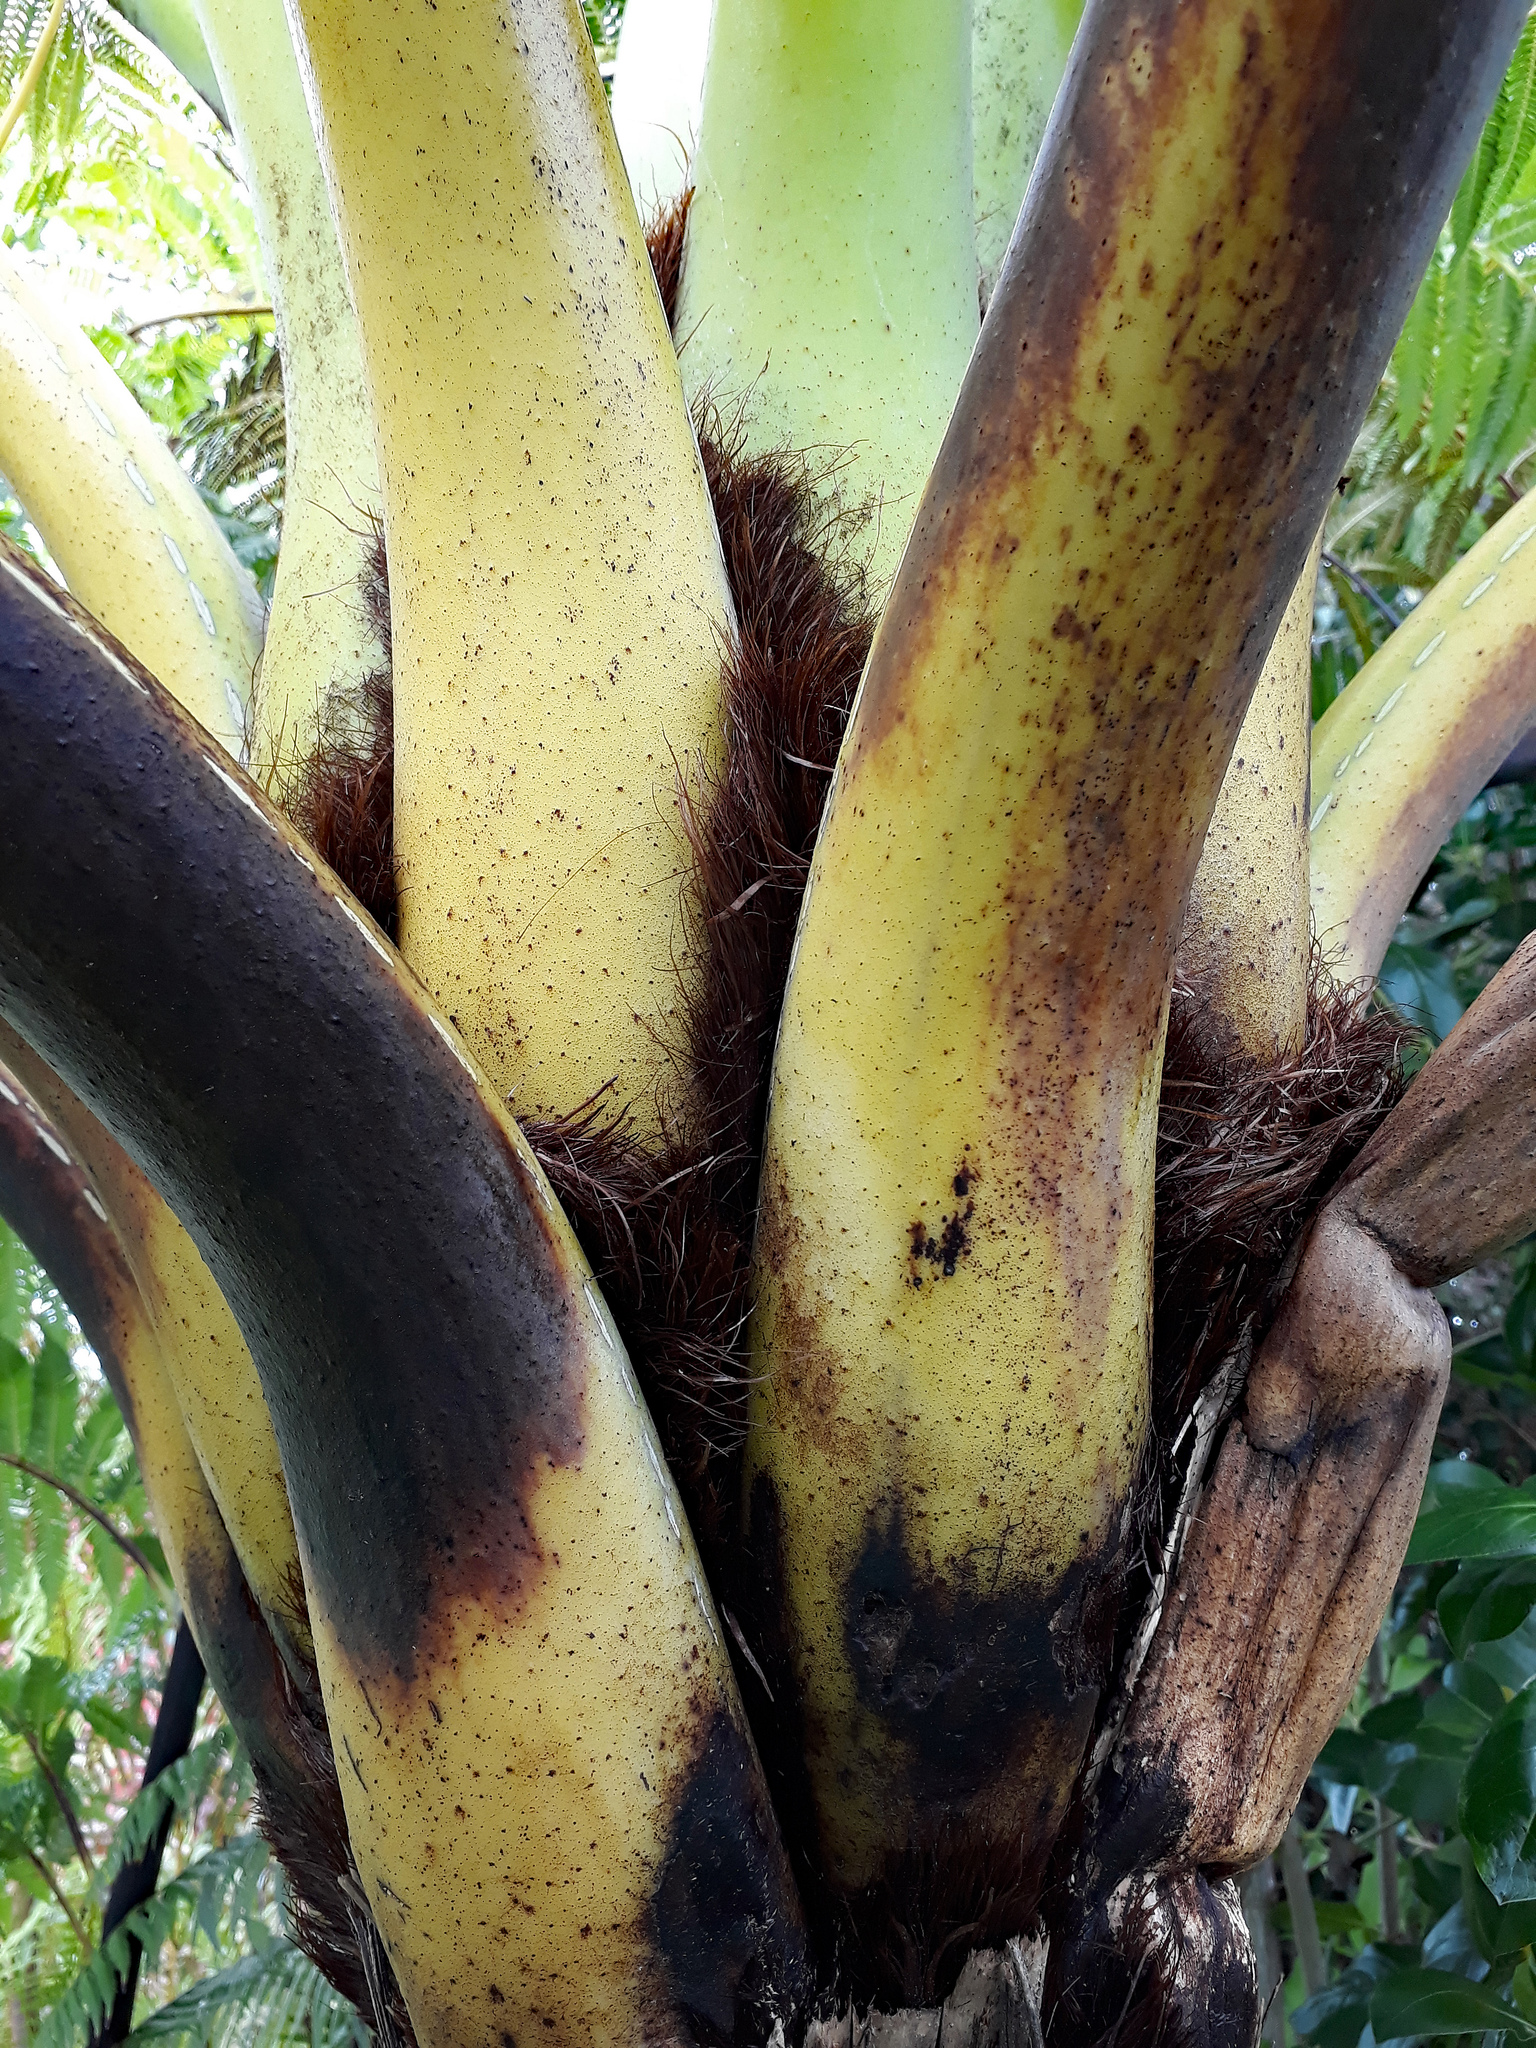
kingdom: Plantae
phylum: Tracheophyta
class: Polypodiopsida
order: Cyatheales
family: Cyatheaceae
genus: Sphaeropteris
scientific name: Sphaeropteris medullaris
